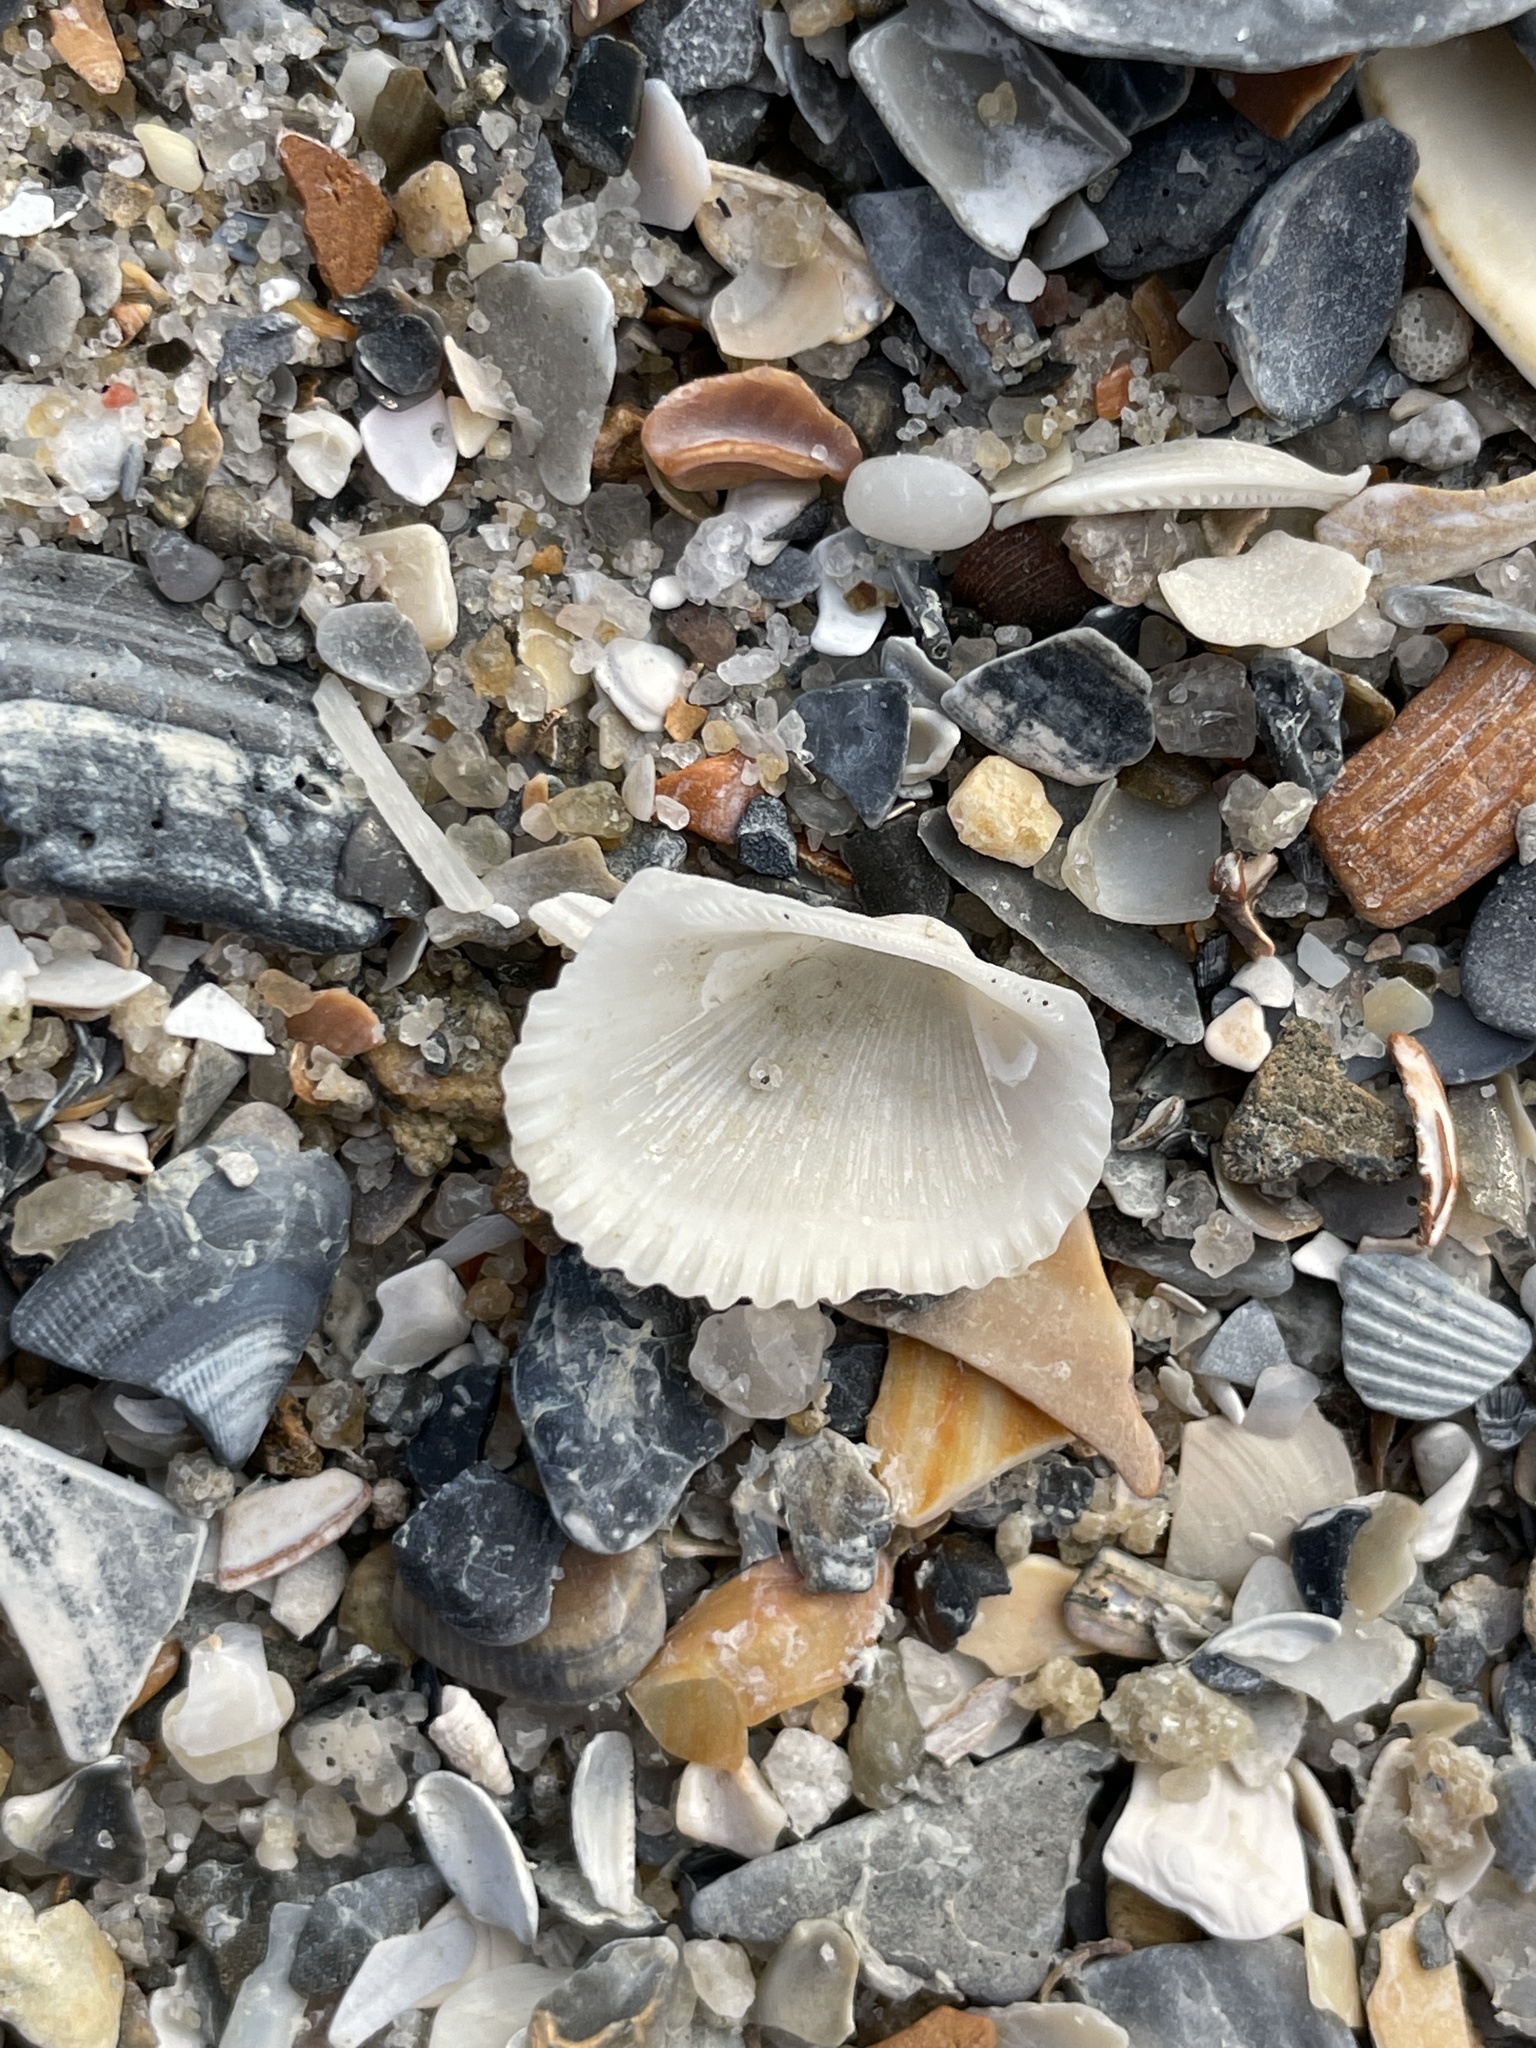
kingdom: Animalia
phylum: Mollusca
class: Bivalvia
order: Arcida
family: Arcidae
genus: Anadara
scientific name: Anadara transversa
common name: Transverse ark
